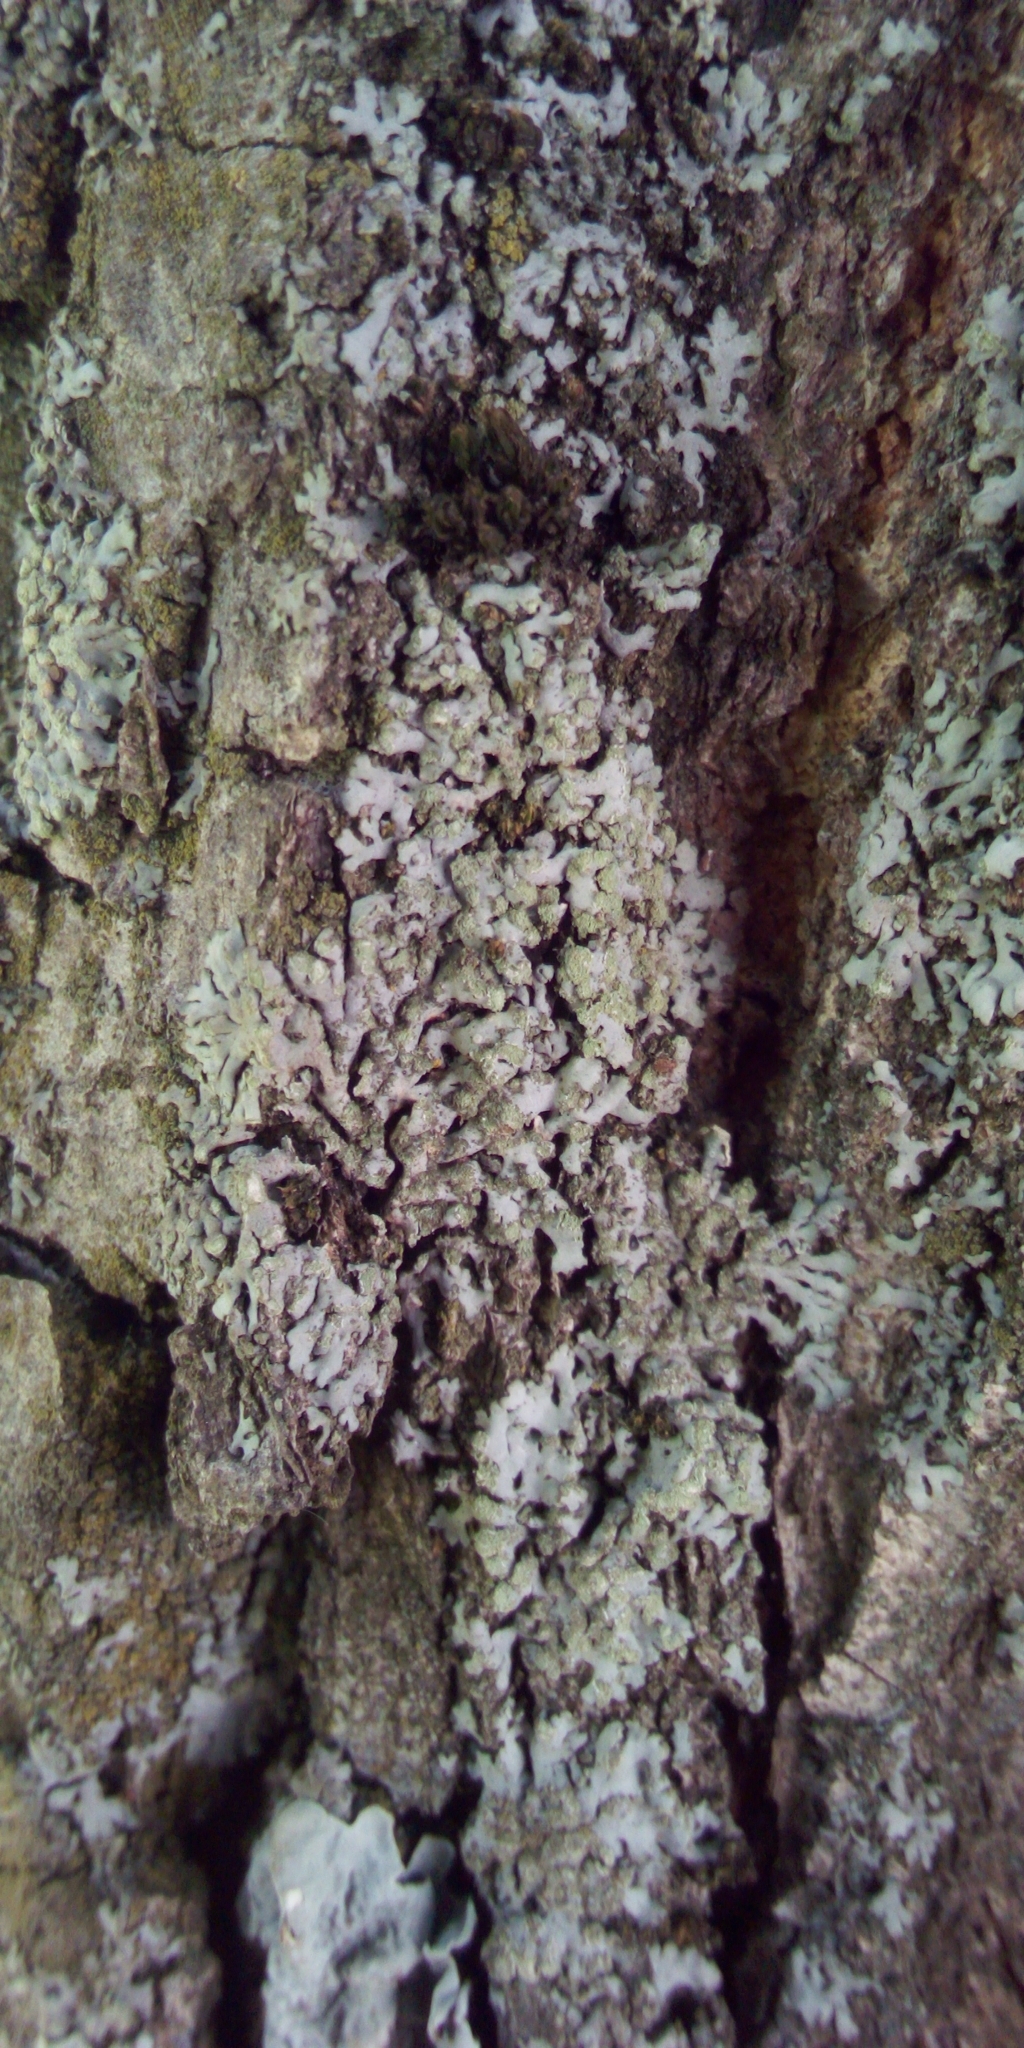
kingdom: Fungi
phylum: Ascomycota
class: Lecanoromycetes
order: Caliciales
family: Physciaceae
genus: Phaeophyscia
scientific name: Phaeophyscia orbicularis
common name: Mealy shadow lichen
